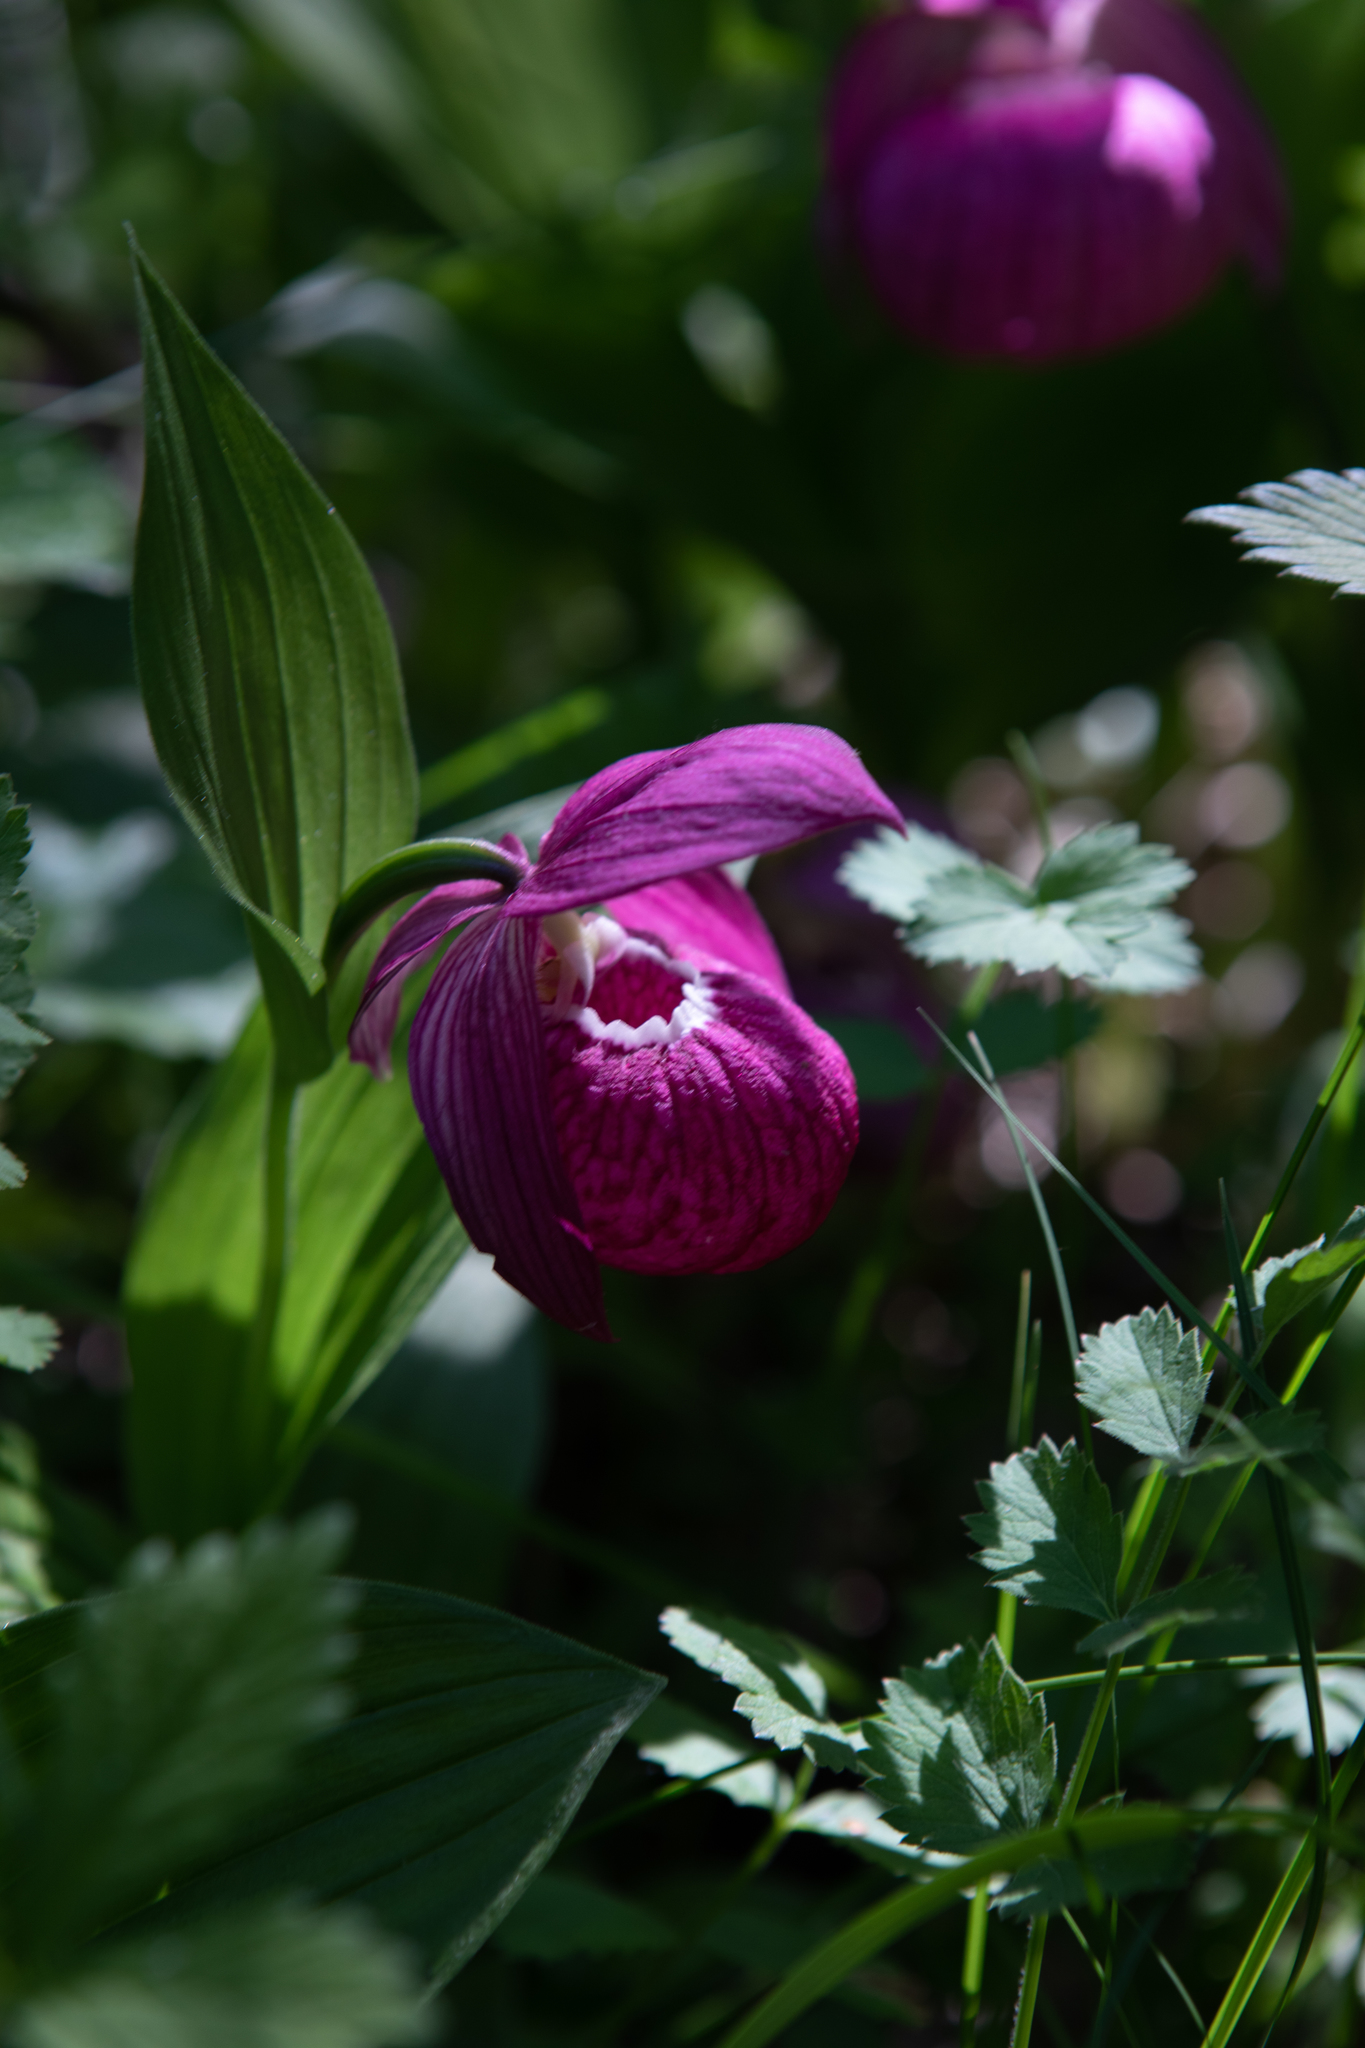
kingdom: Plantae
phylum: Tracheophyta
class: Liliopsida
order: Asparagales
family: Orchidaceae
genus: Cypripedium
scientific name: Cypripedium macranthos
